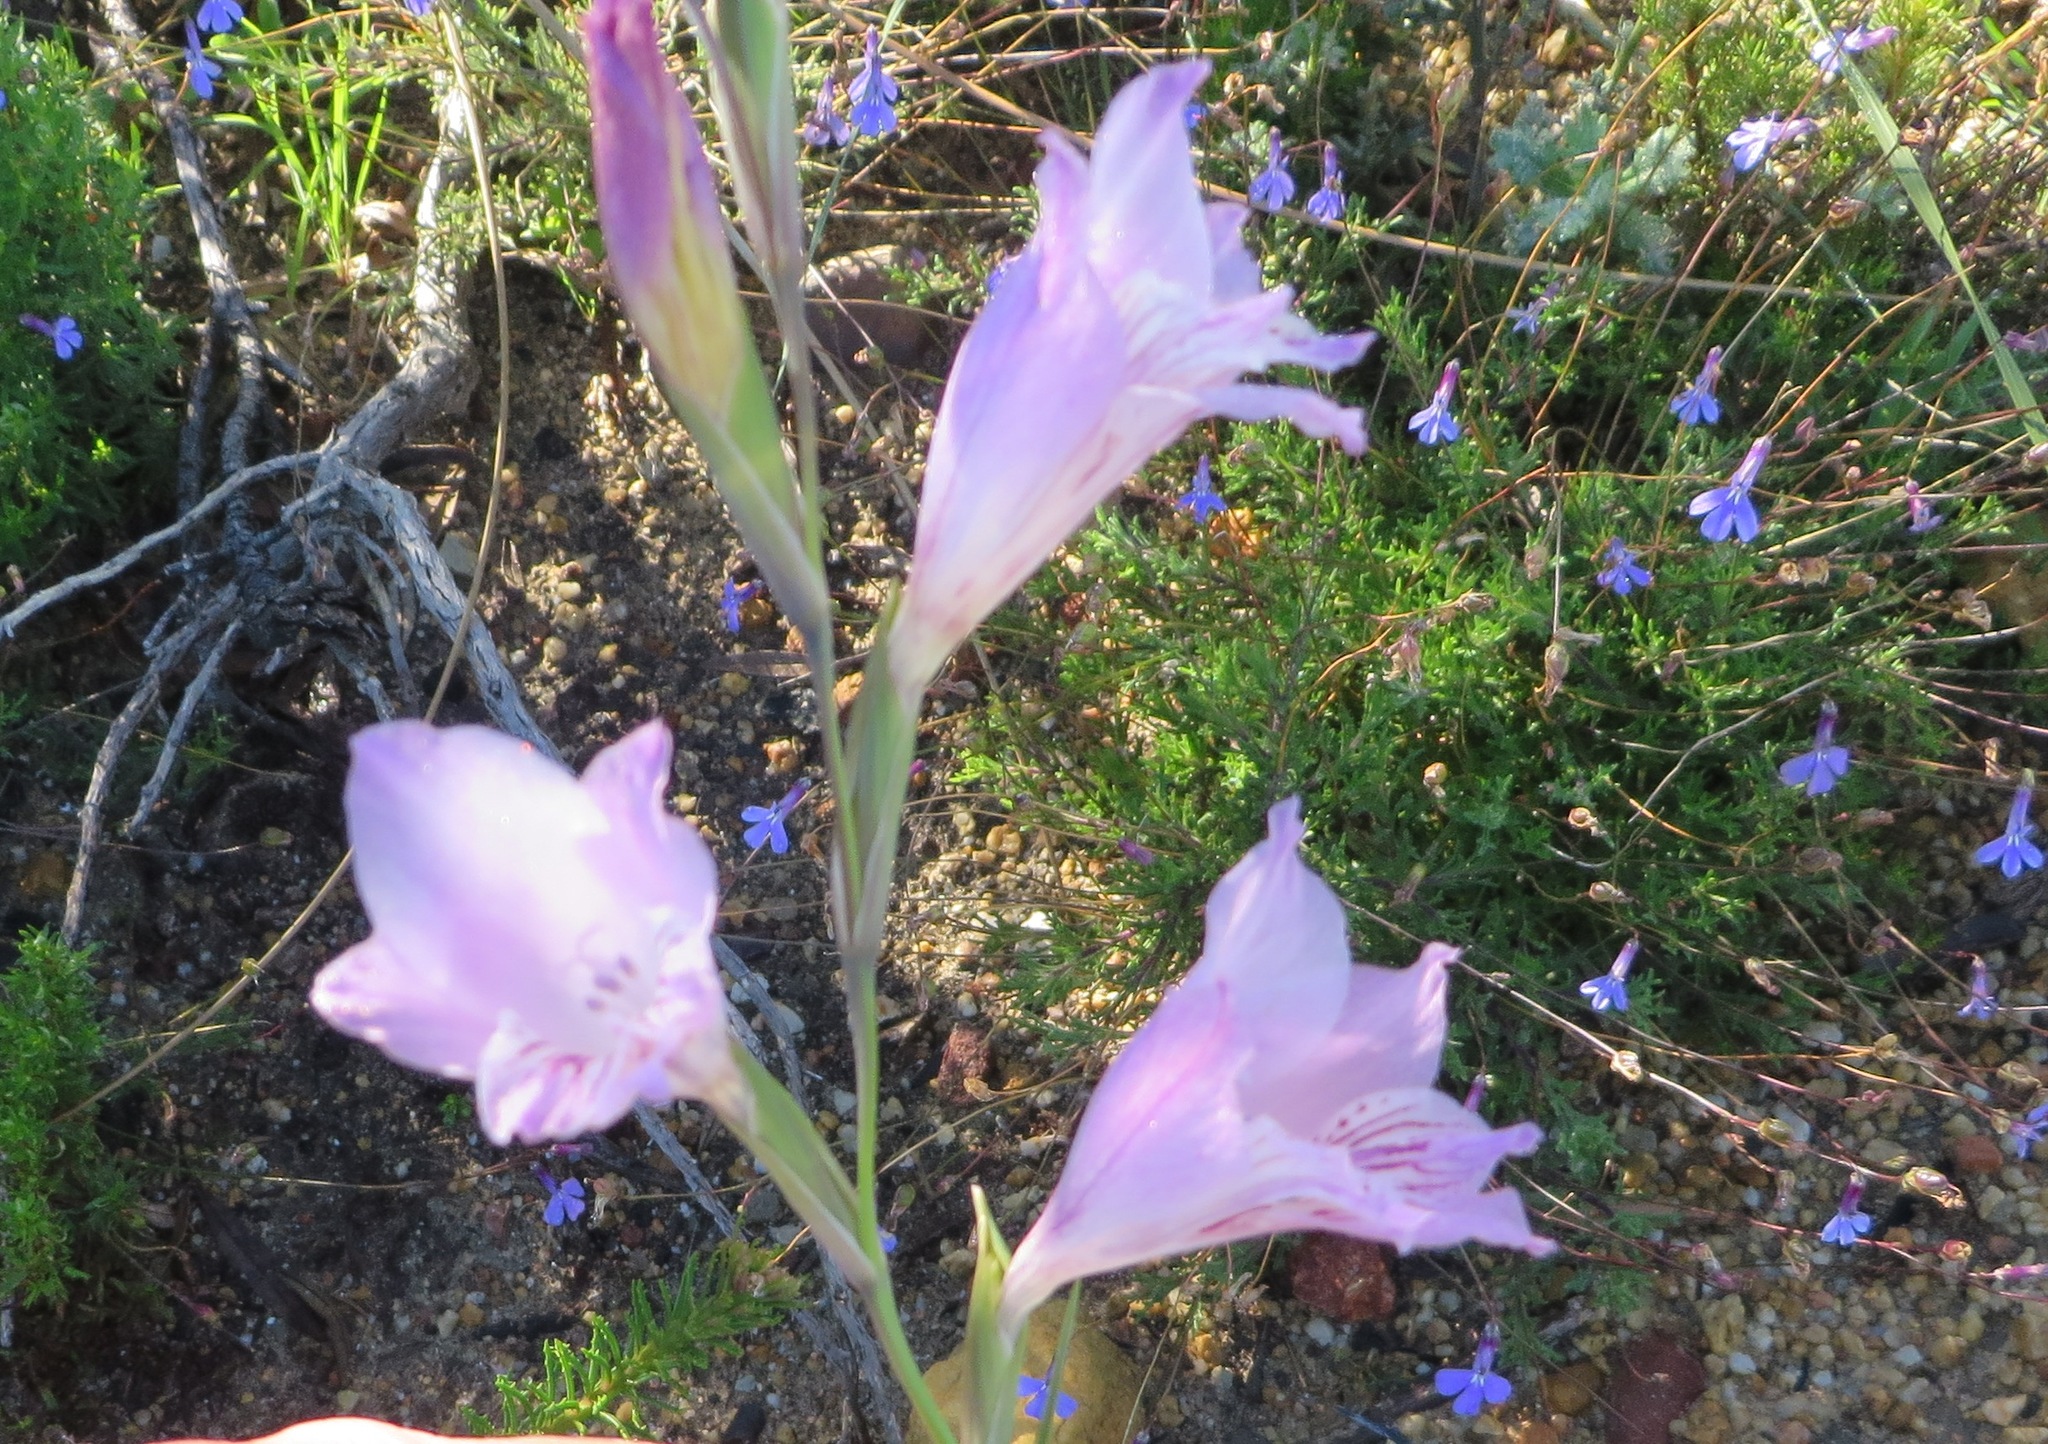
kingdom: Plantae
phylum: Tracheophyta
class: Liliopsida
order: Asparagales
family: Iridaceae
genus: Gladiolus
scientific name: Gladiolus hirsutus
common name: Small pink afrikaner
